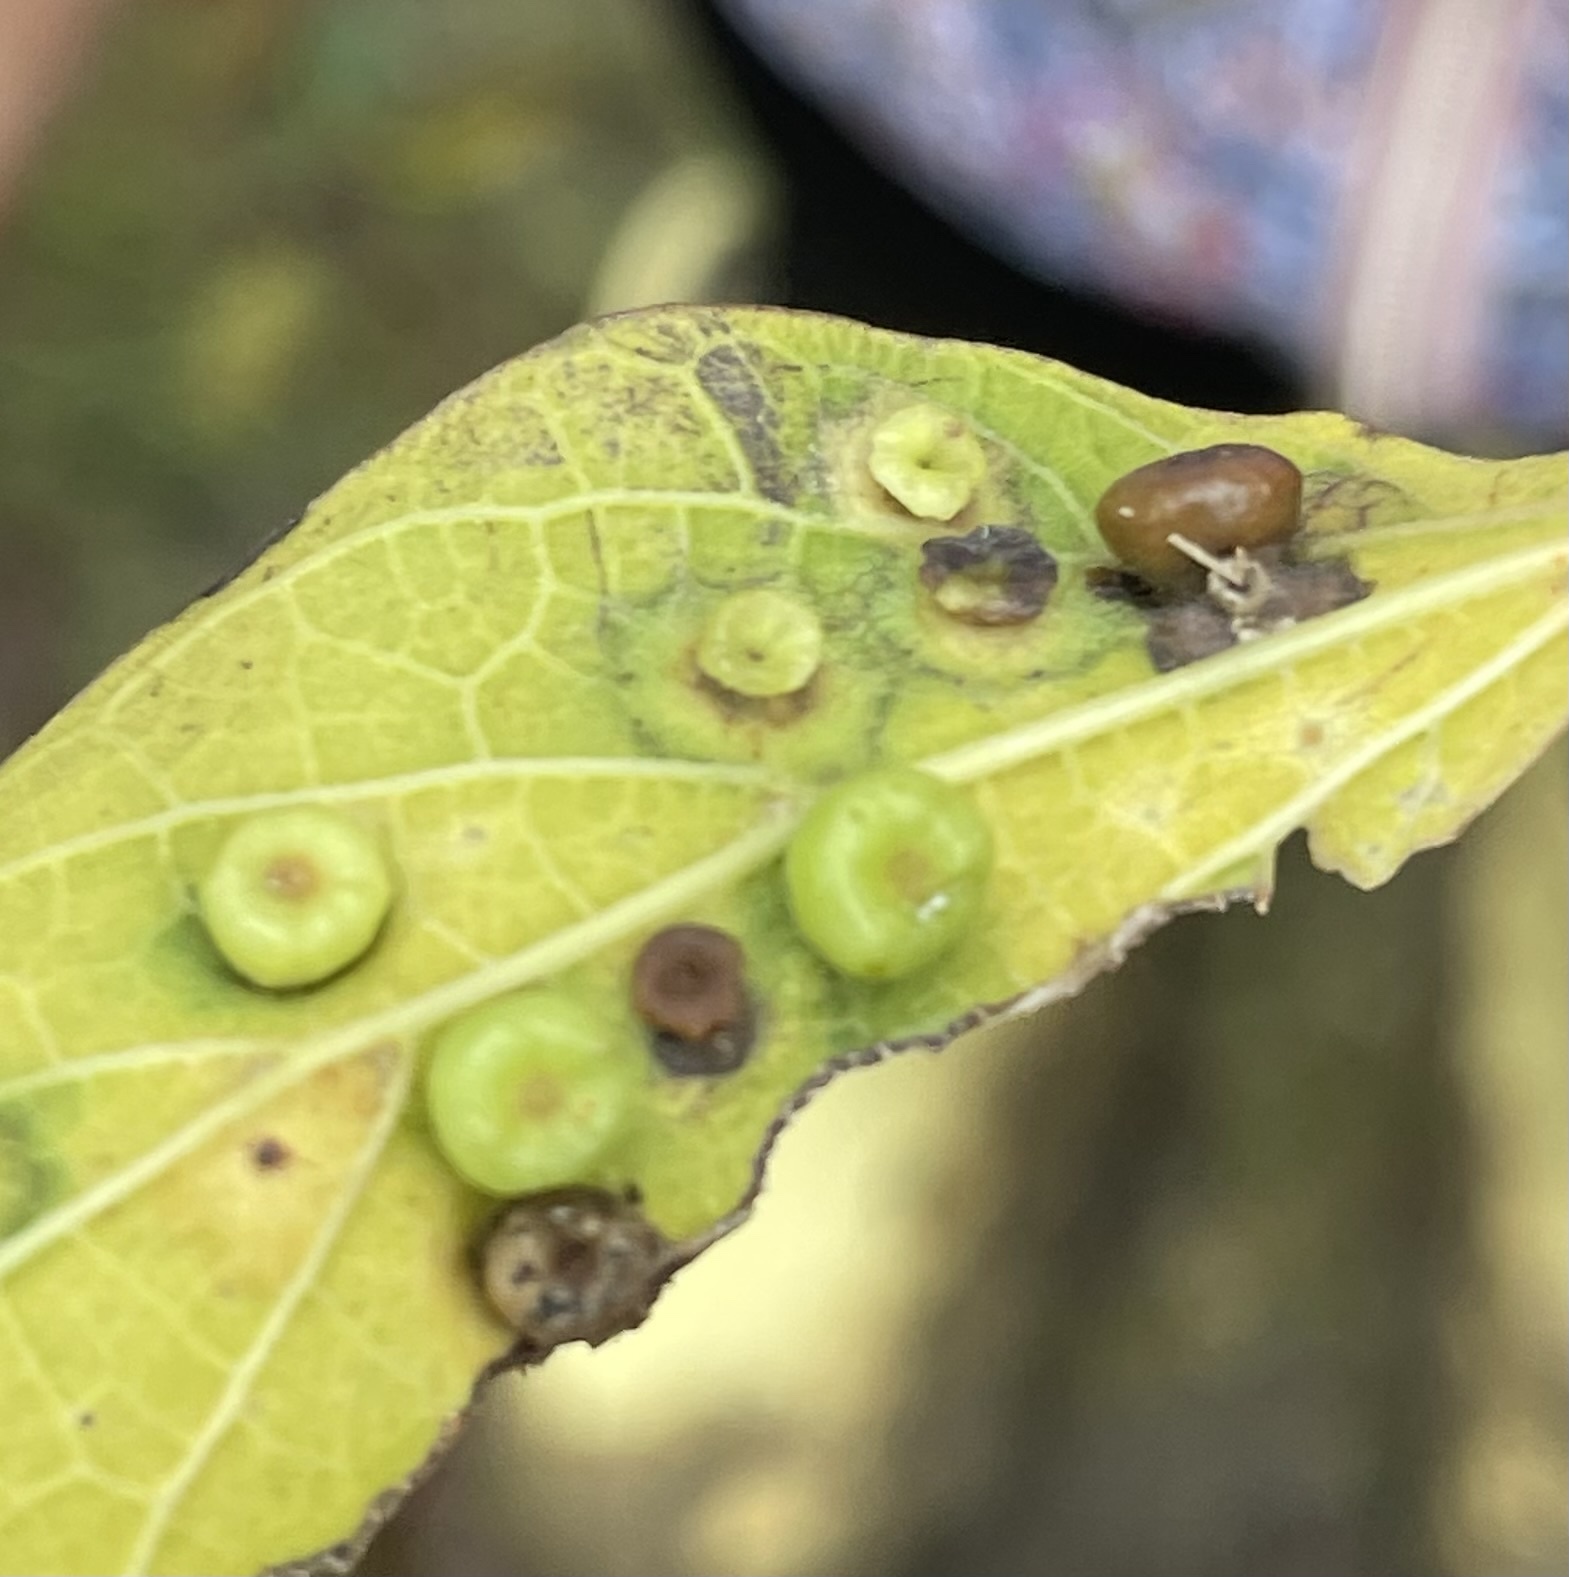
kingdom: Animalia
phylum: Arthropoda
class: Insecta
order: Hemiptera
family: Aphalaridae
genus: Pachypsylla
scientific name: Pachypsylla celtidismamma
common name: Hackberry nipplegall psyllid
